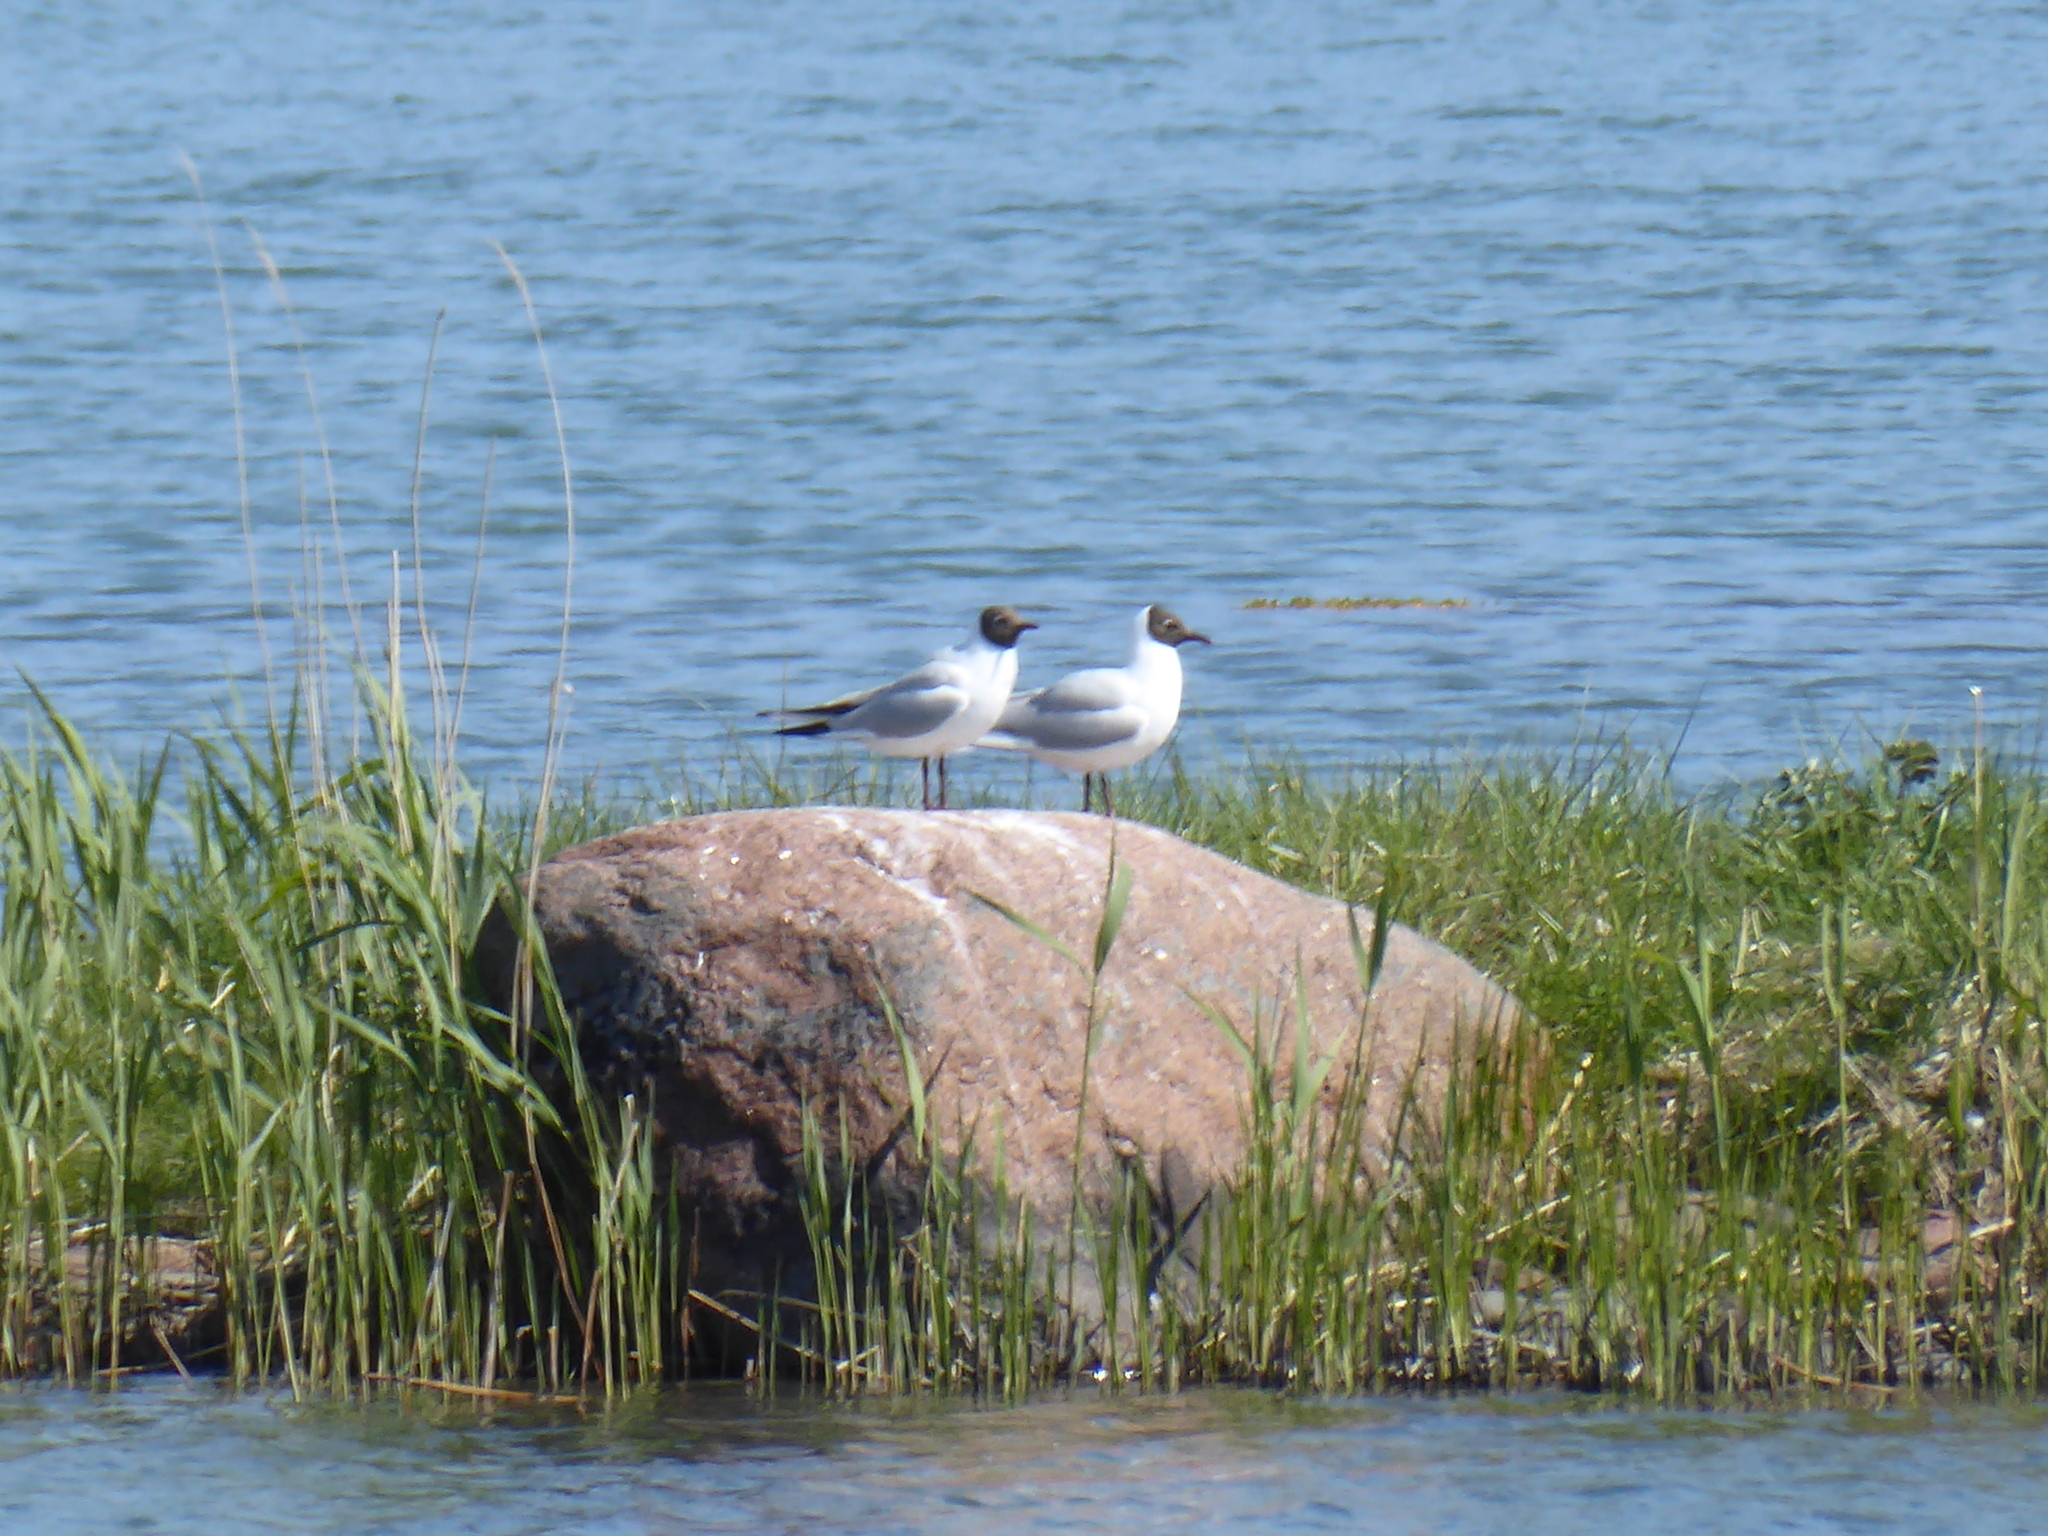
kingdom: Animalia
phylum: Chordata
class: Aves
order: Charadriiformes
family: Laridae
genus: Chroicocephalus
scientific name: Chroicocephalus ridibundus
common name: Black-headed gull
